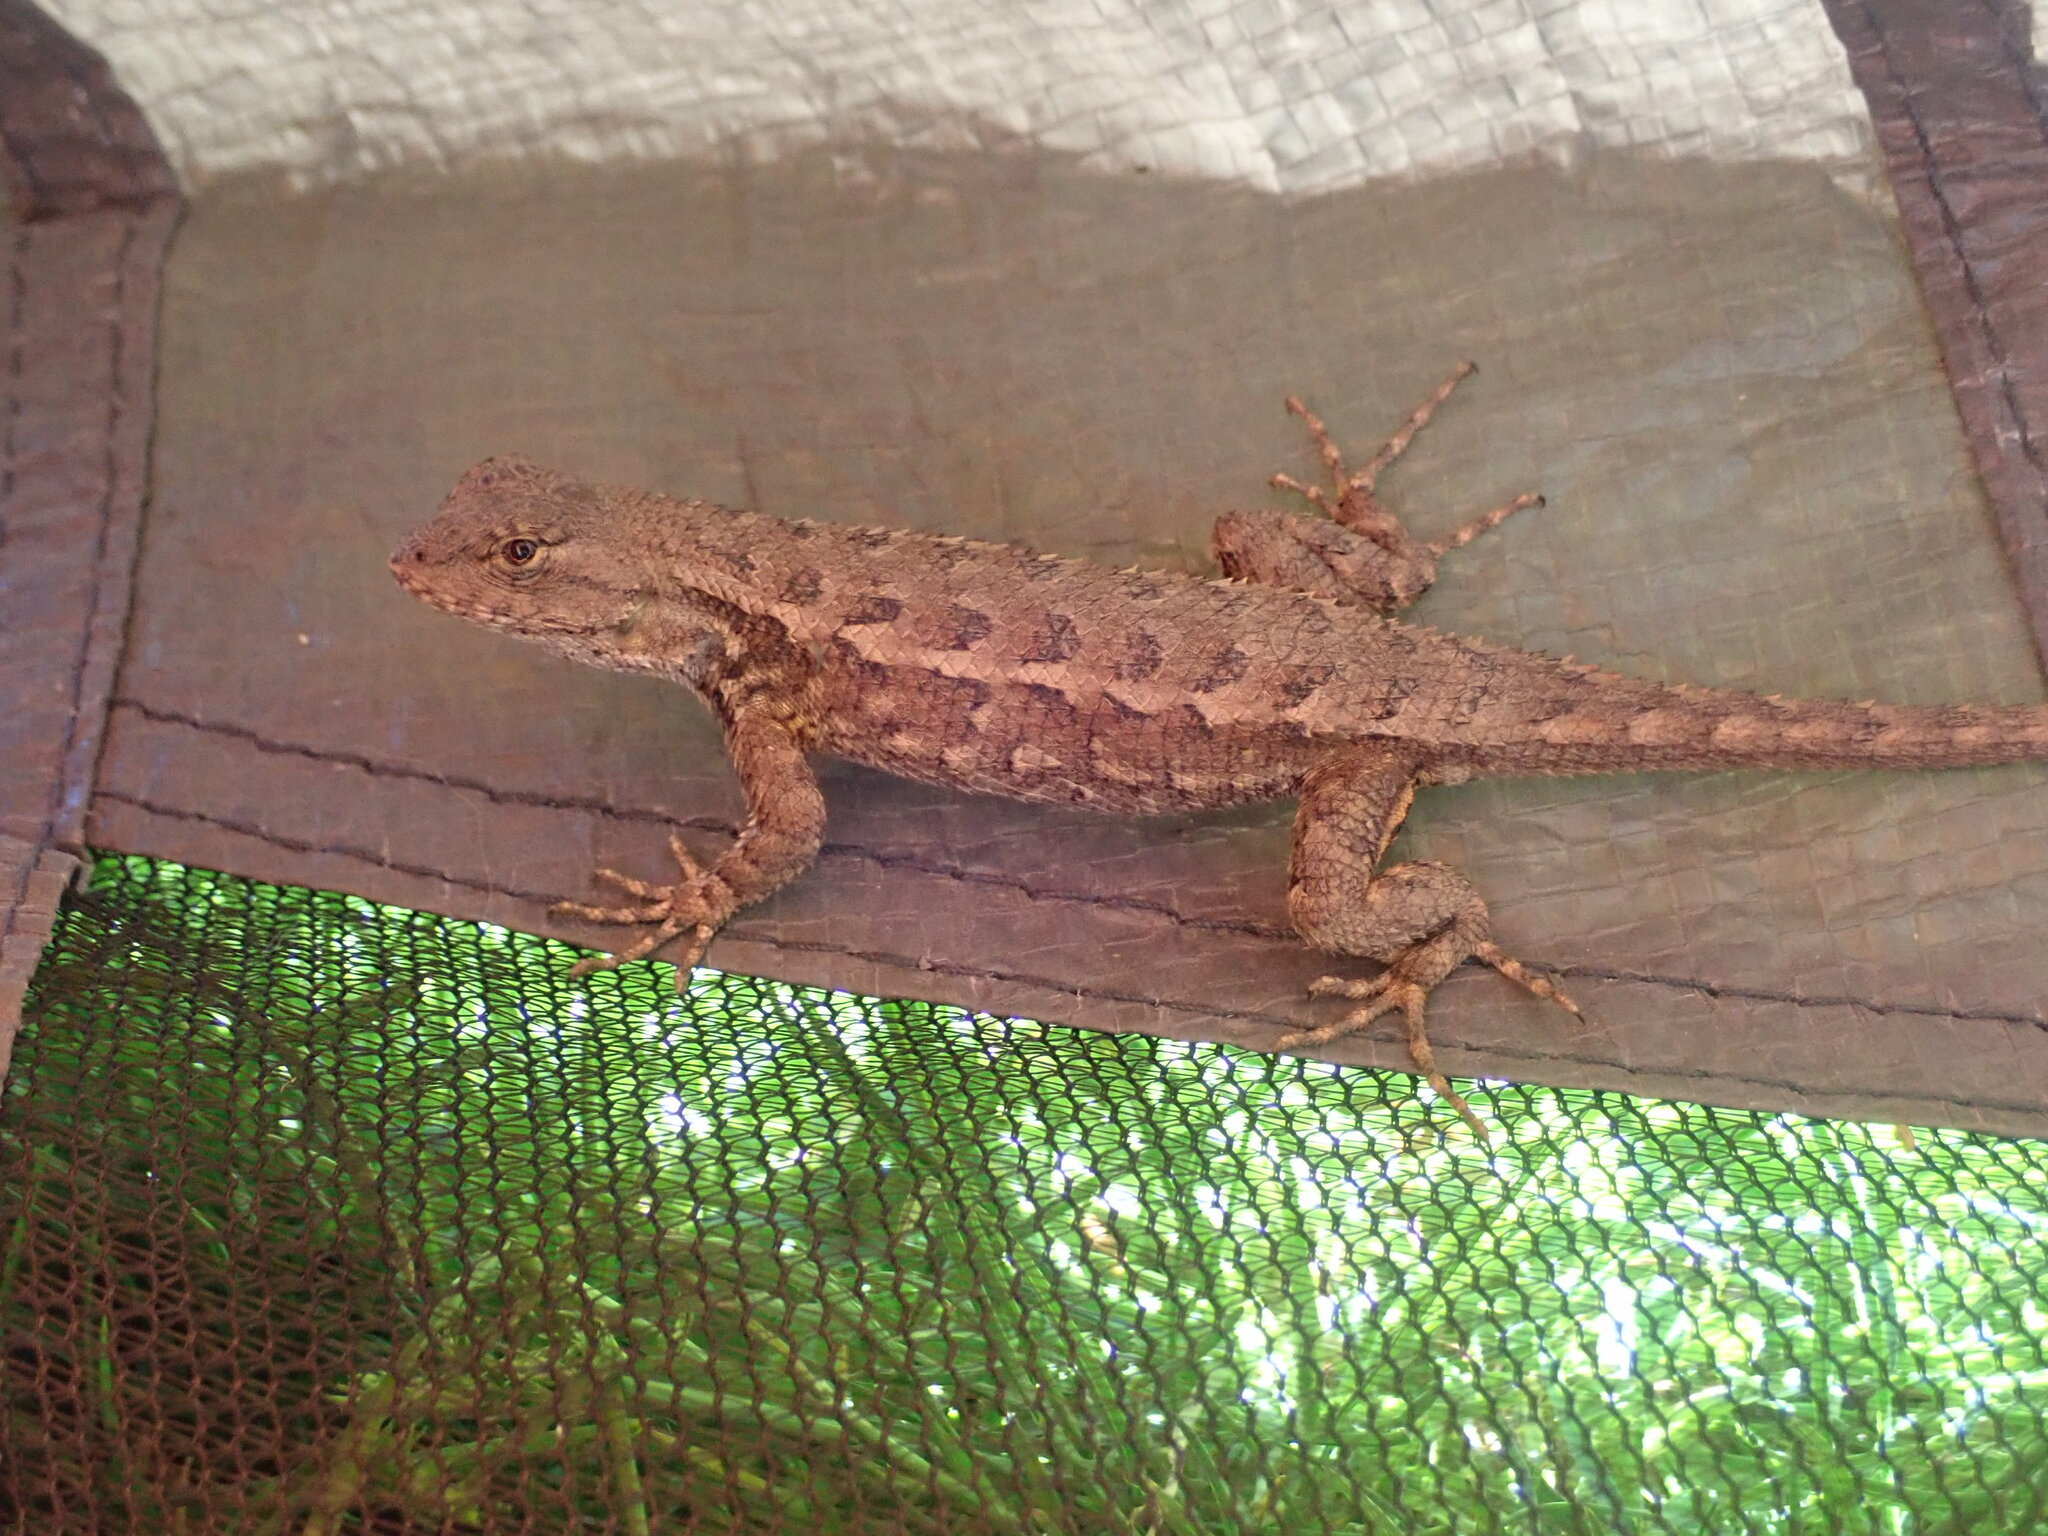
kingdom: Animalia
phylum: Chordata
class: Squamata
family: Phrynosomatidae
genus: Sceloporus
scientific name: Sceloporus occidentalis
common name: Western fence lizard
